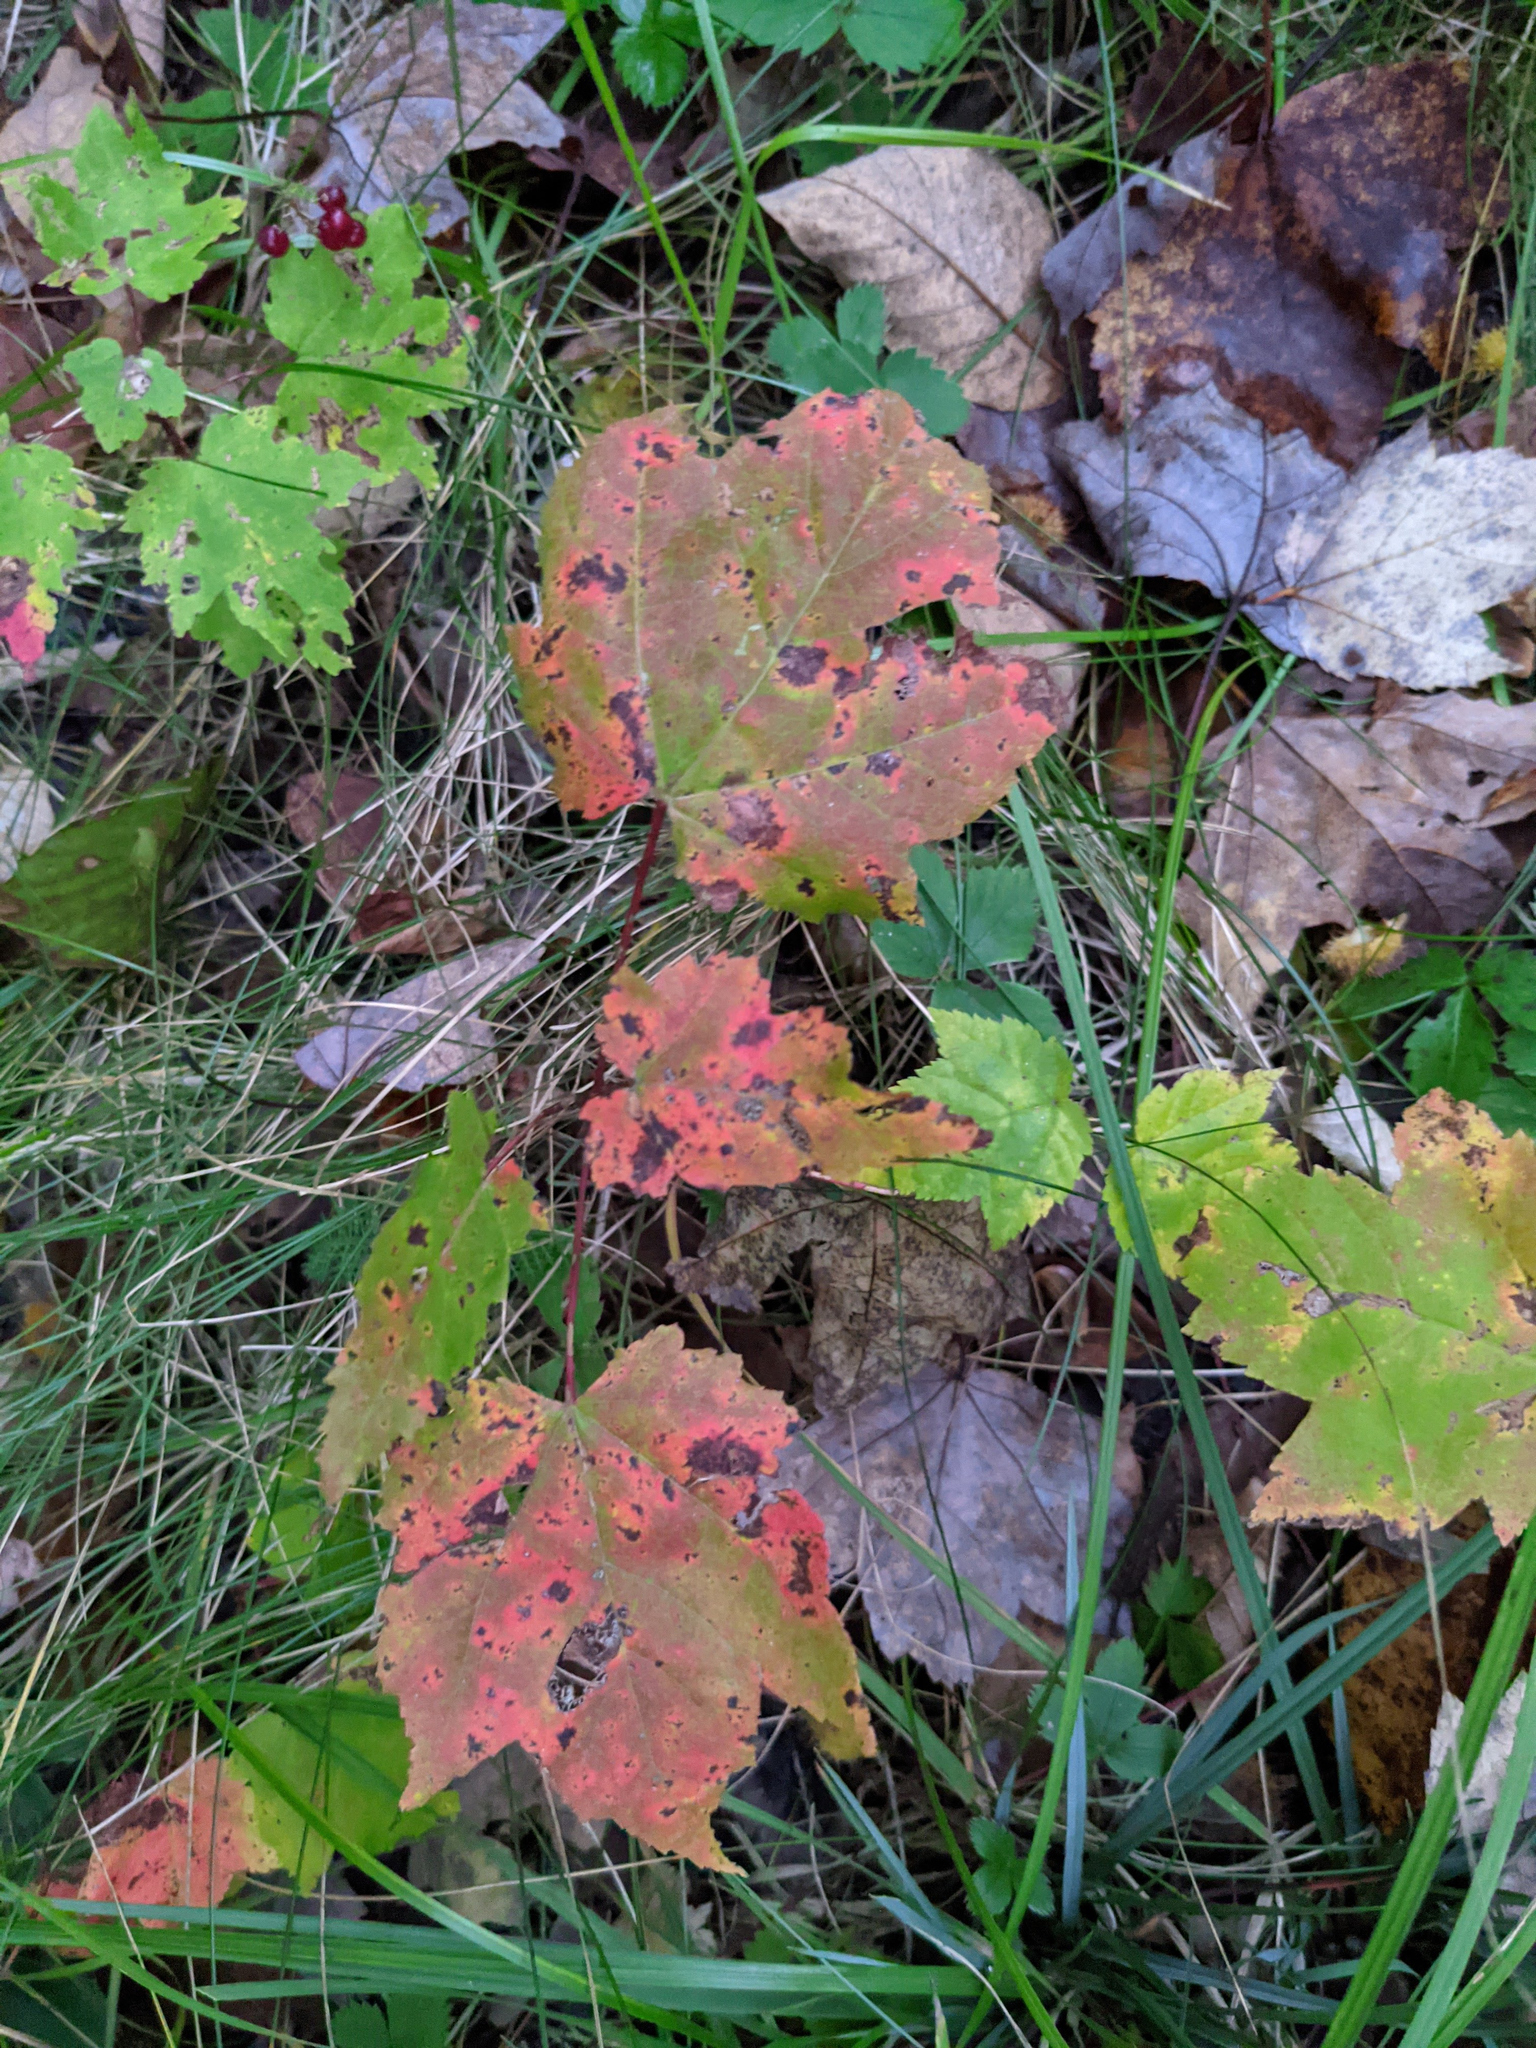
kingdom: Plantae
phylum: Tracheophyta
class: Magnoliopsida
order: Sapindales
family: Sapindaceae
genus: Acer
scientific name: Acer rubrum
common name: Red maple
